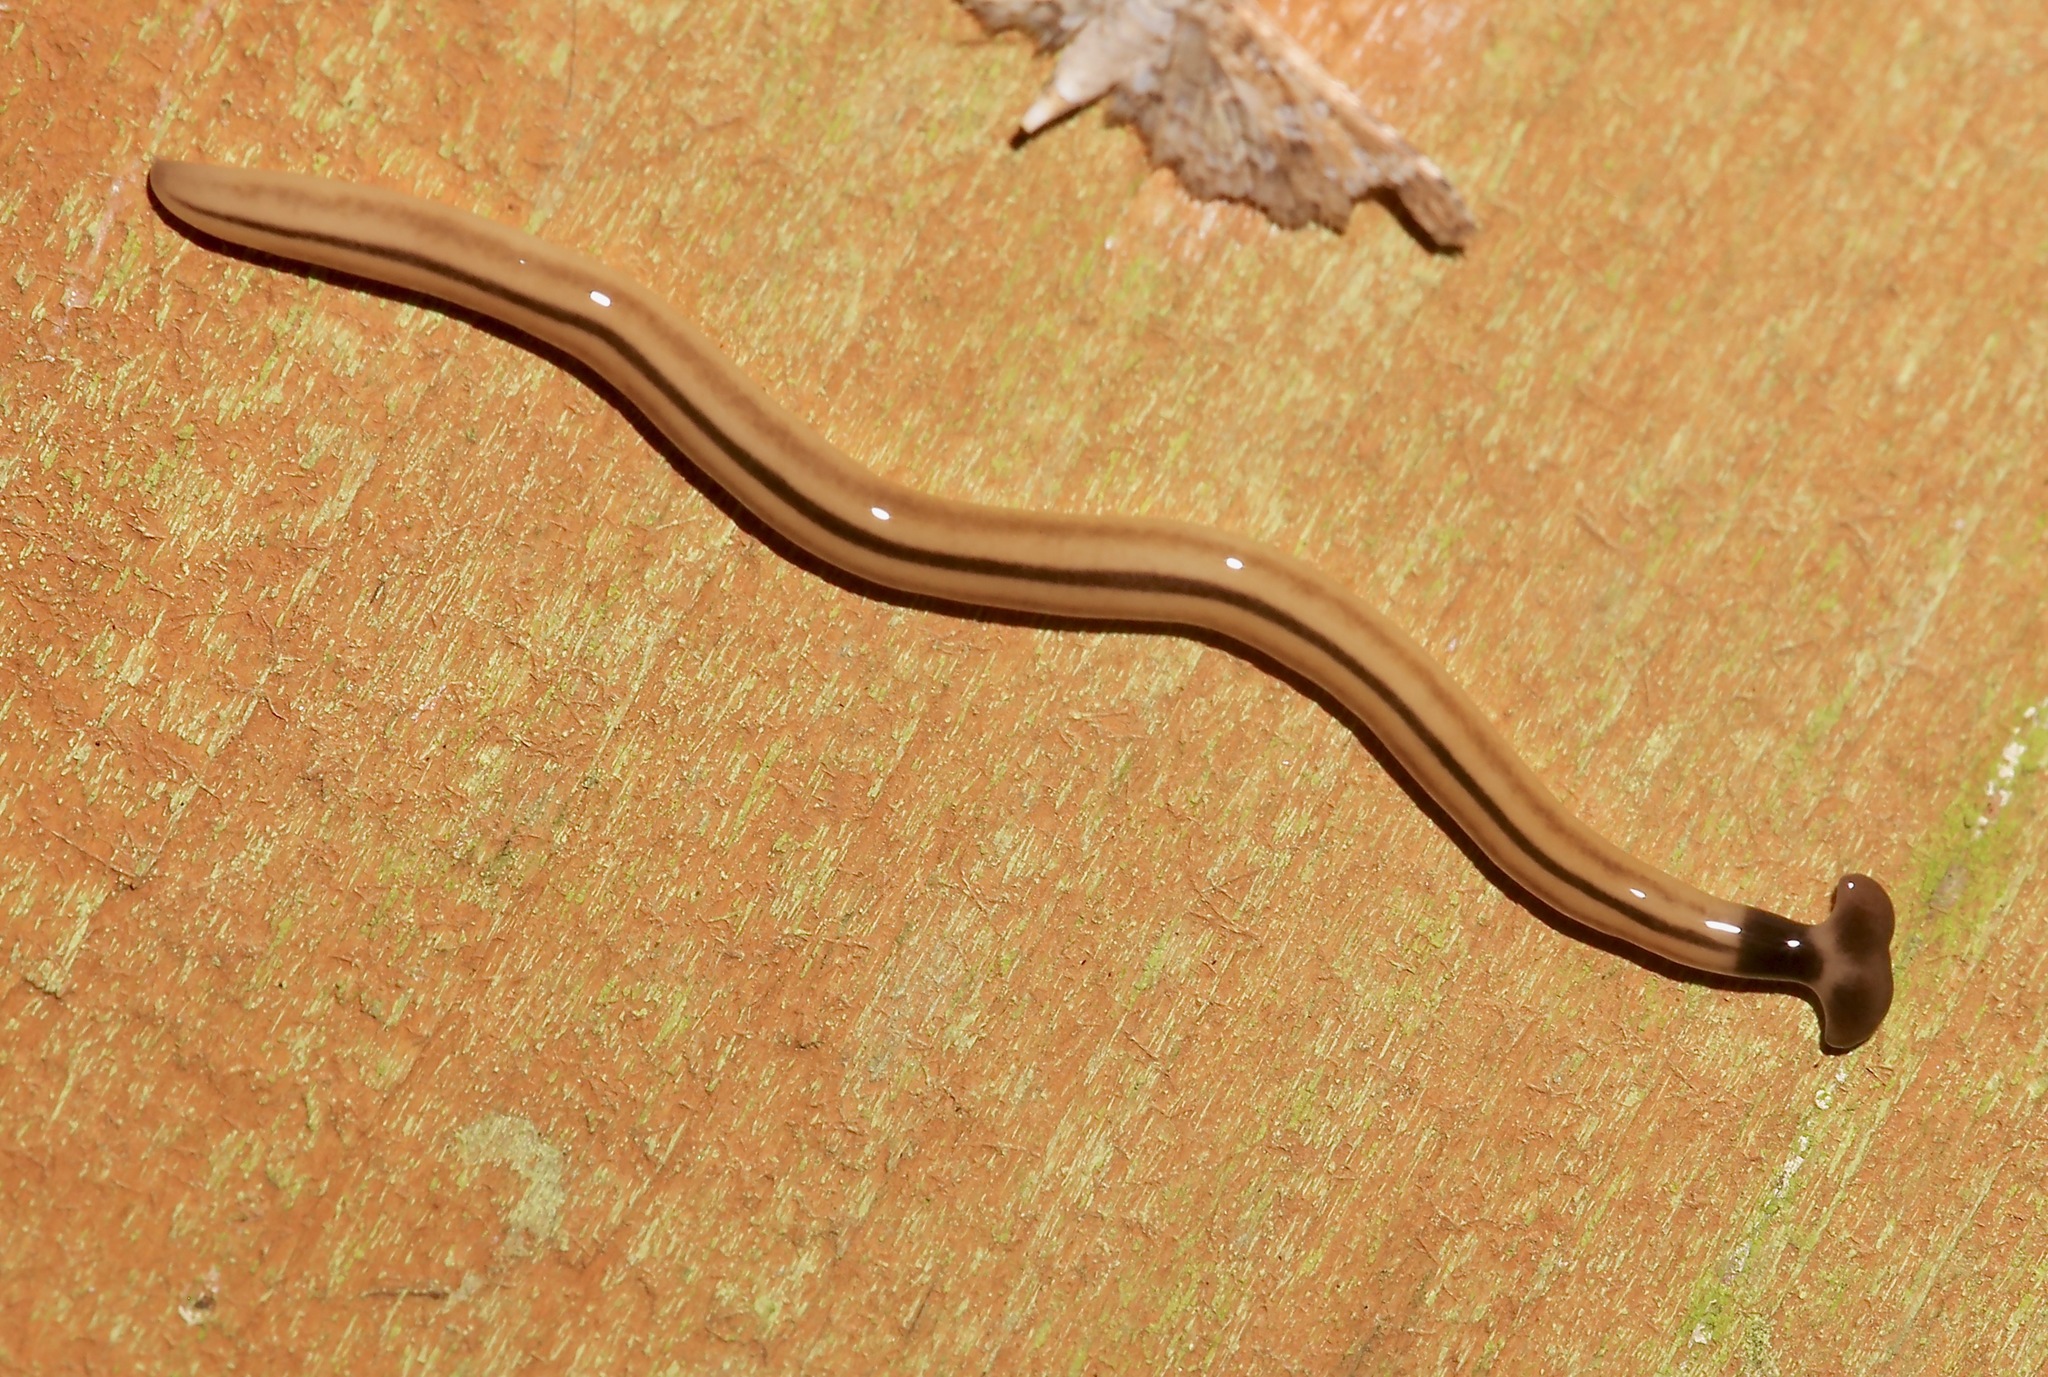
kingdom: Animalia
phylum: Platyhelminthes
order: Tricladida
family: Geoplanidae
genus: Bipalium
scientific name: Bipalium vagum
